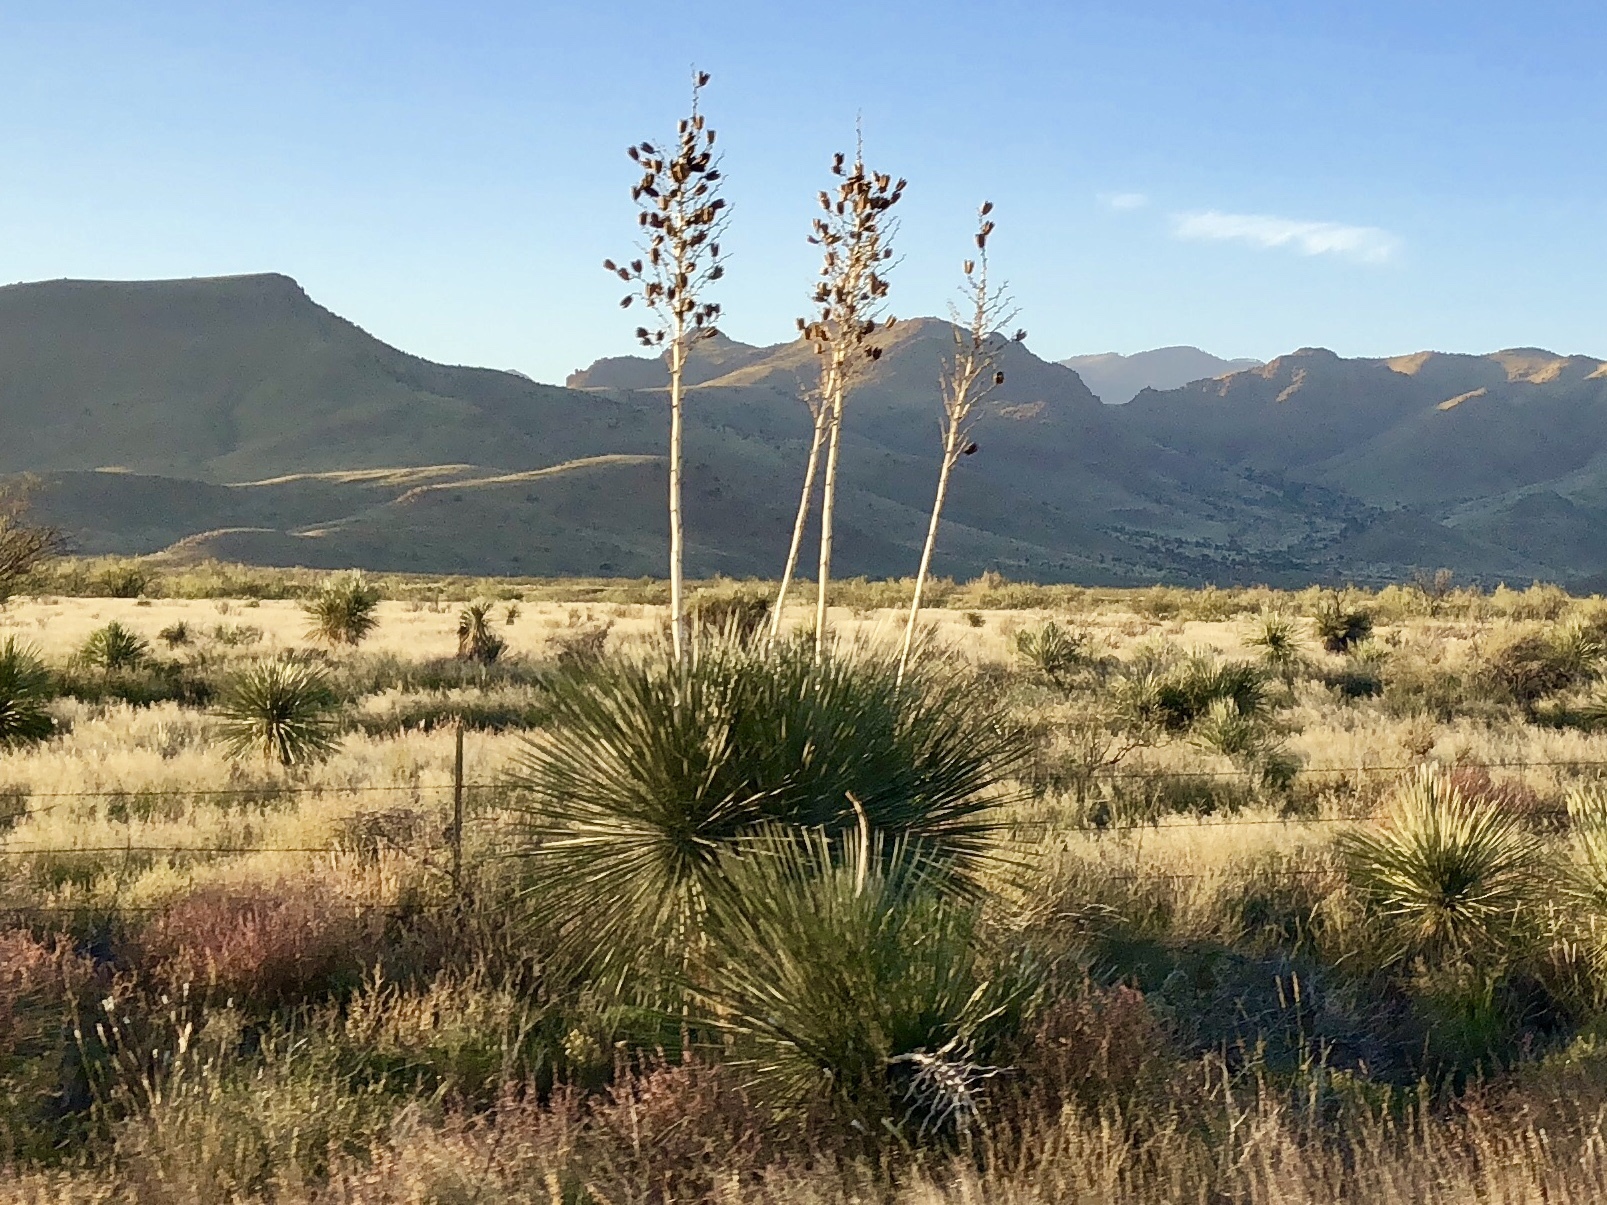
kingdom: Plantae
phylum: Tracheophyta
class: Liliopsida
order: Asparagales
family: Asparagaceae
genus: Yucca
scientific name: Yucca elata
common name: Palmella
